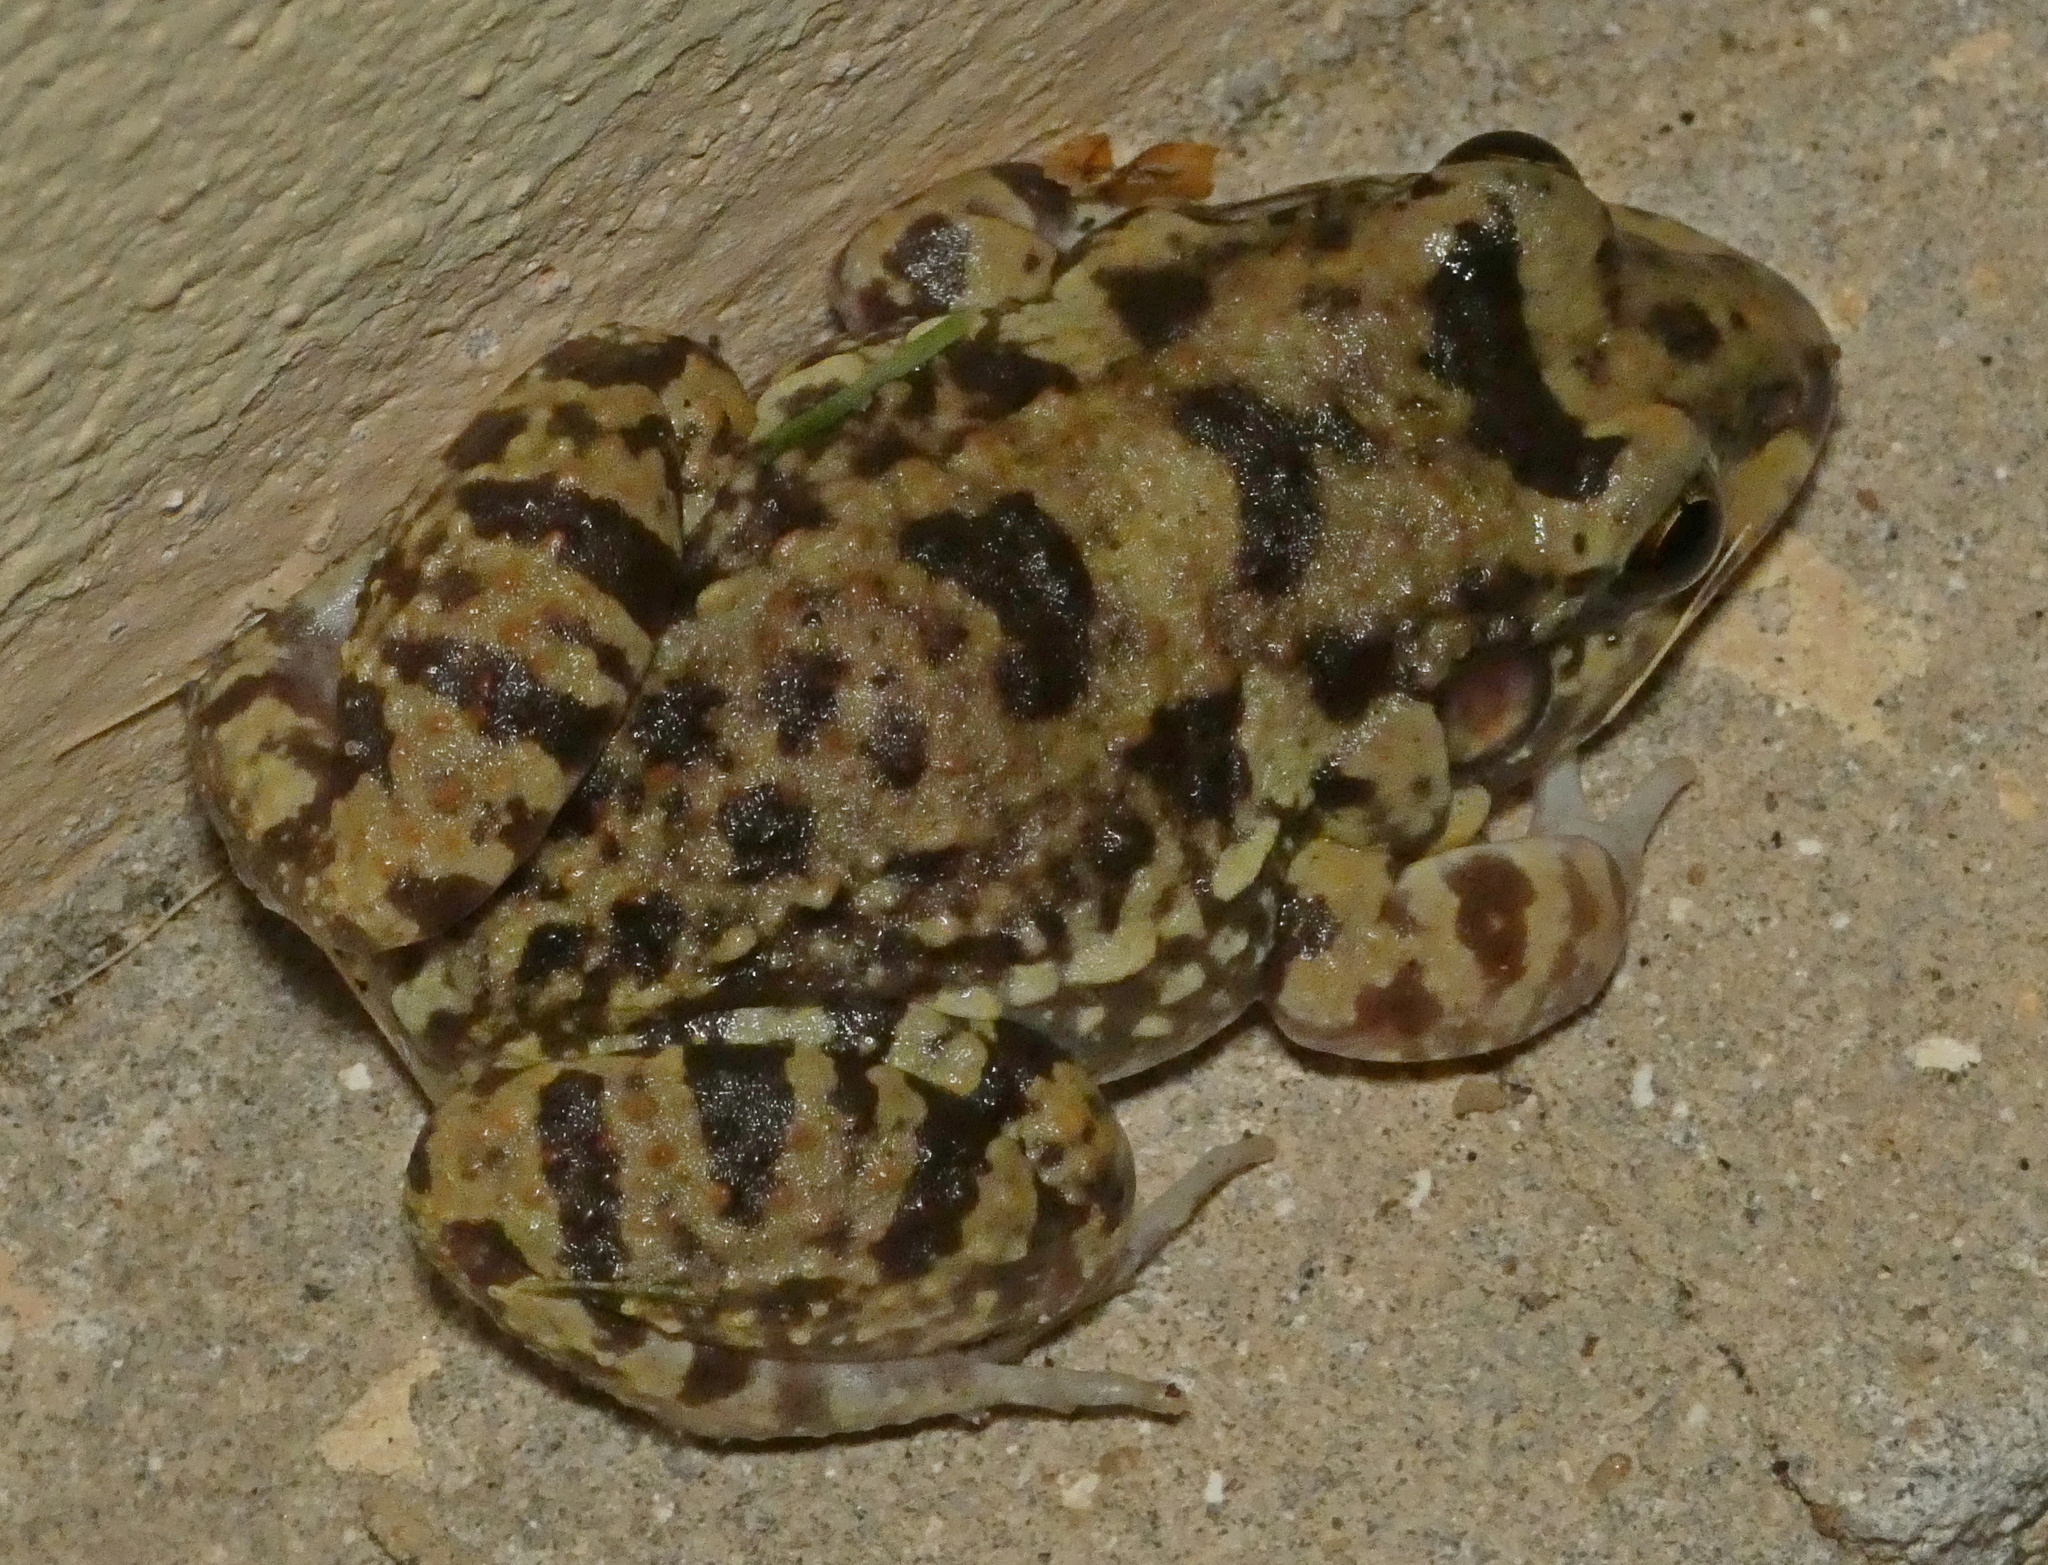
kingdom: Animalia
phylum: Chordata
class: Amphibia
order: Anura
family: Leptodactylidae
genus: Leptodactylus
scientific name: Leptodactylus troglodytes
